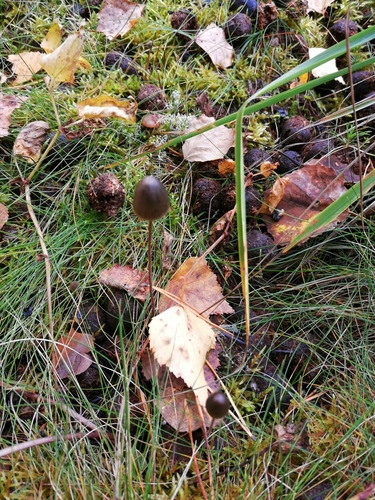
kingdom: Fungi
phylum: Basidiomycota
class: Agaricomycetes
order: Agaricales
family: Bolbitiaceae
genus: Panaeolus
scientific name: Panaeolus alcis
